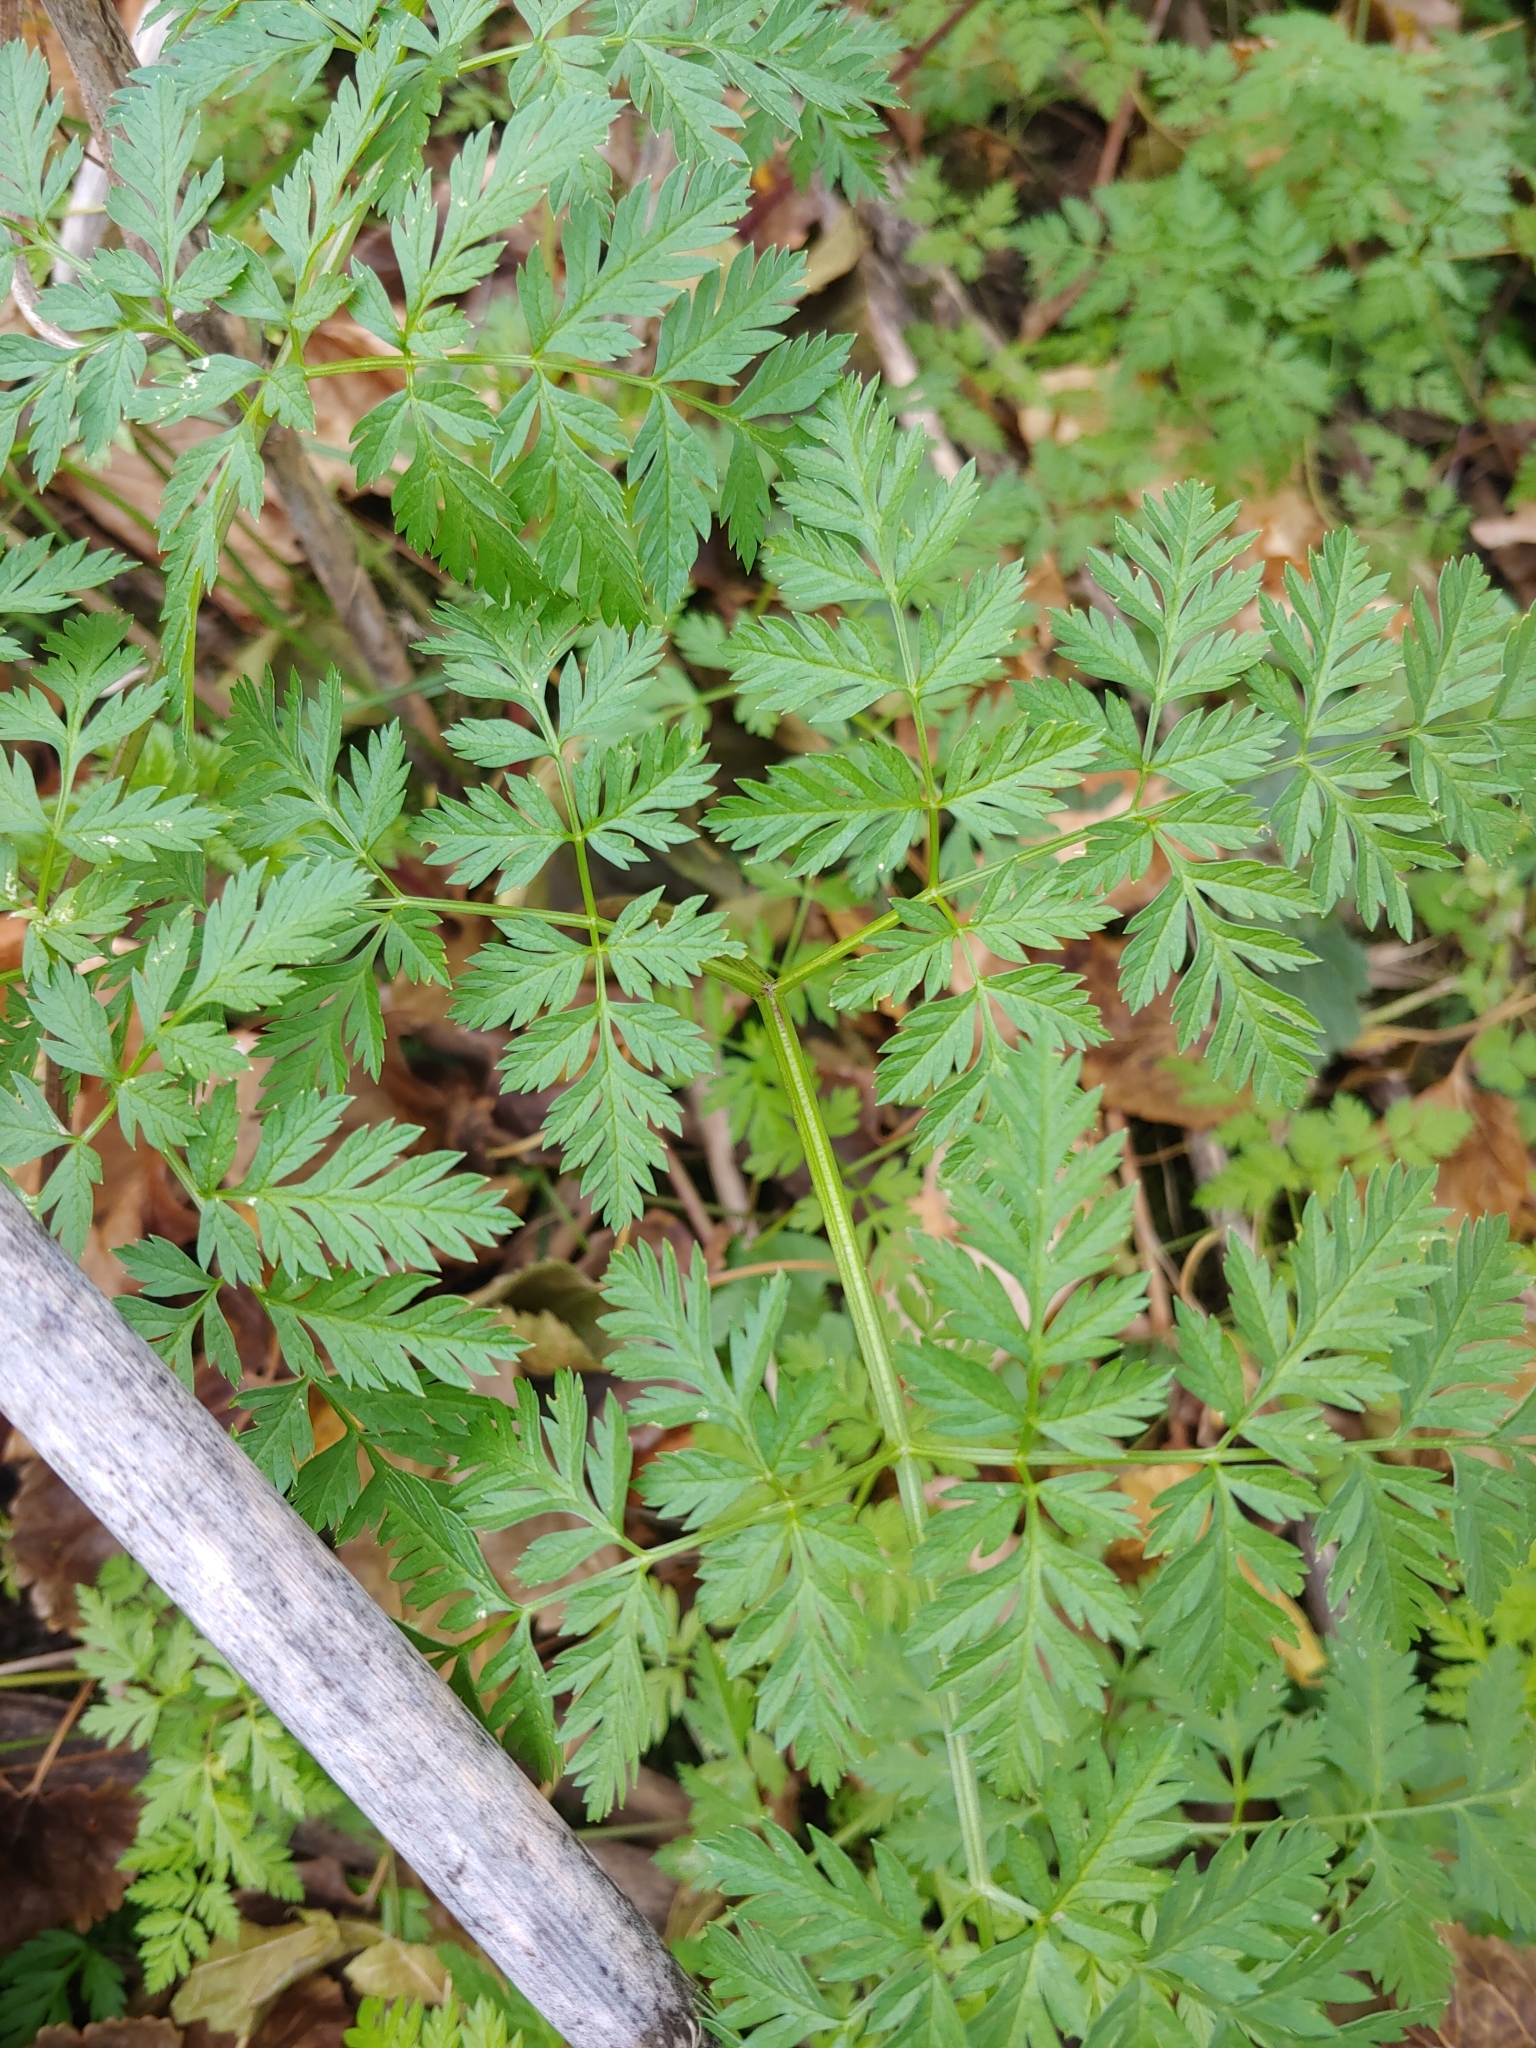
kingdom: Plantae
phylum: Tracheophyta
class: Magnoliopsida
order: Apiales
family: Apiaceae
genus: Conium
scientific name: Conium maculatum
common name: Hemlock
